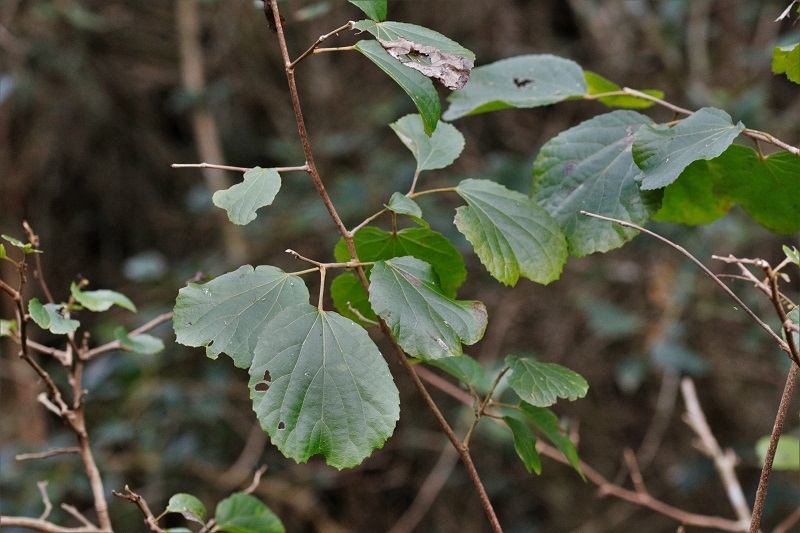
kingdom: Plantae
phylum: Tracheophyta
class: Magnoliopsida
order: Malpighiales
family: Salicaceae
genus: Trimeria
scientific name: Trimeria grandifolia
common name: Wild mulberry
